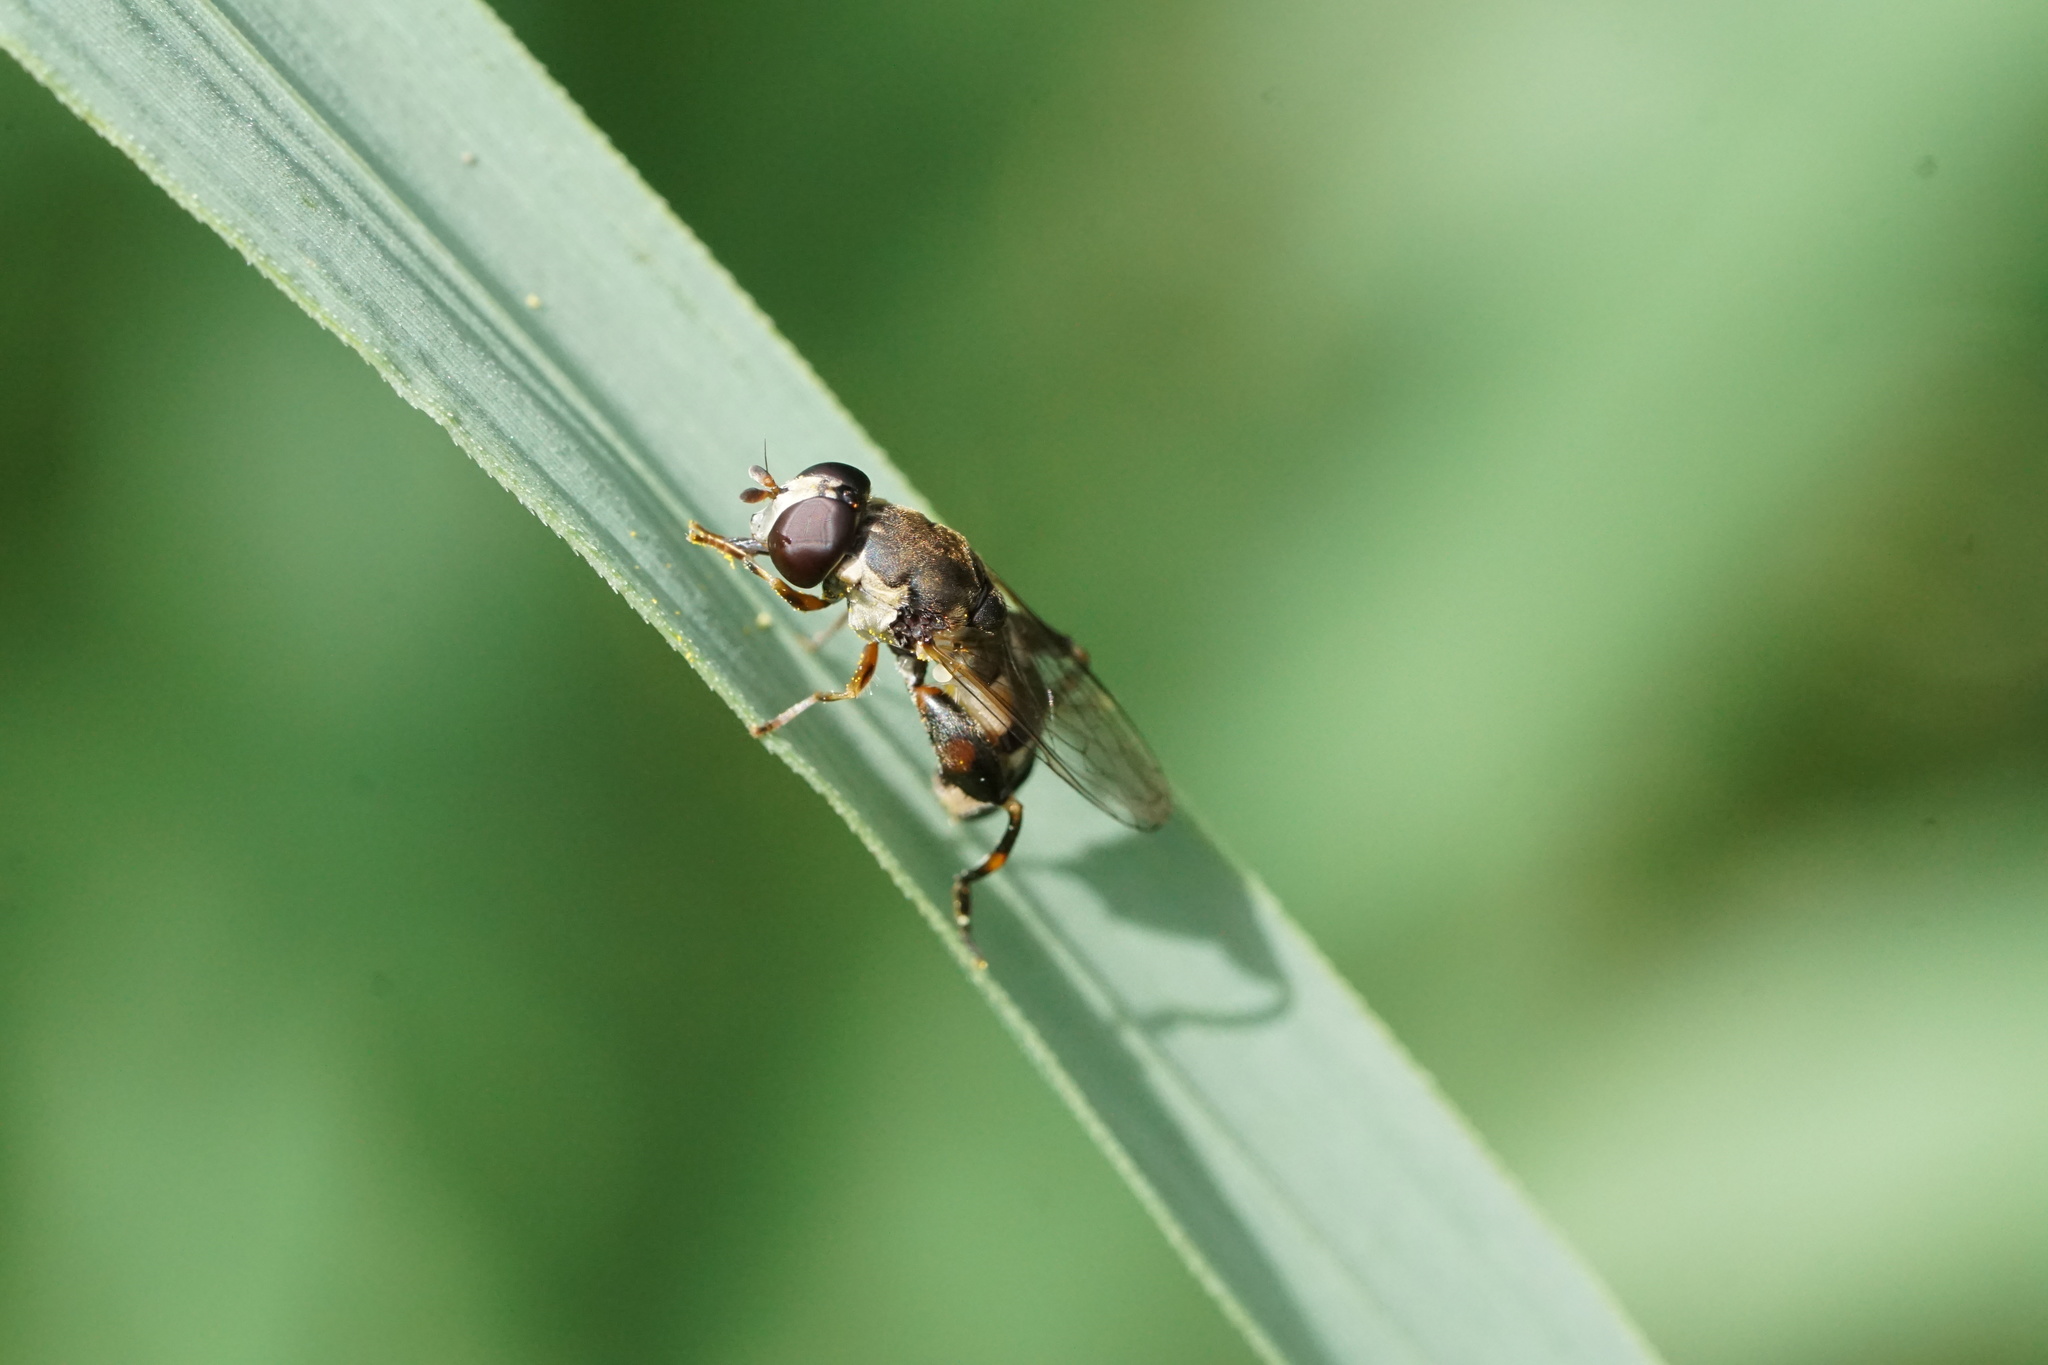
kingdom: Animalia
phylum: Arthropoda
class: Insecta
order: Diptera
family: Syrphidae
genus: Syritta
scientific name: Syritta pipiens
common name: Hover fly
